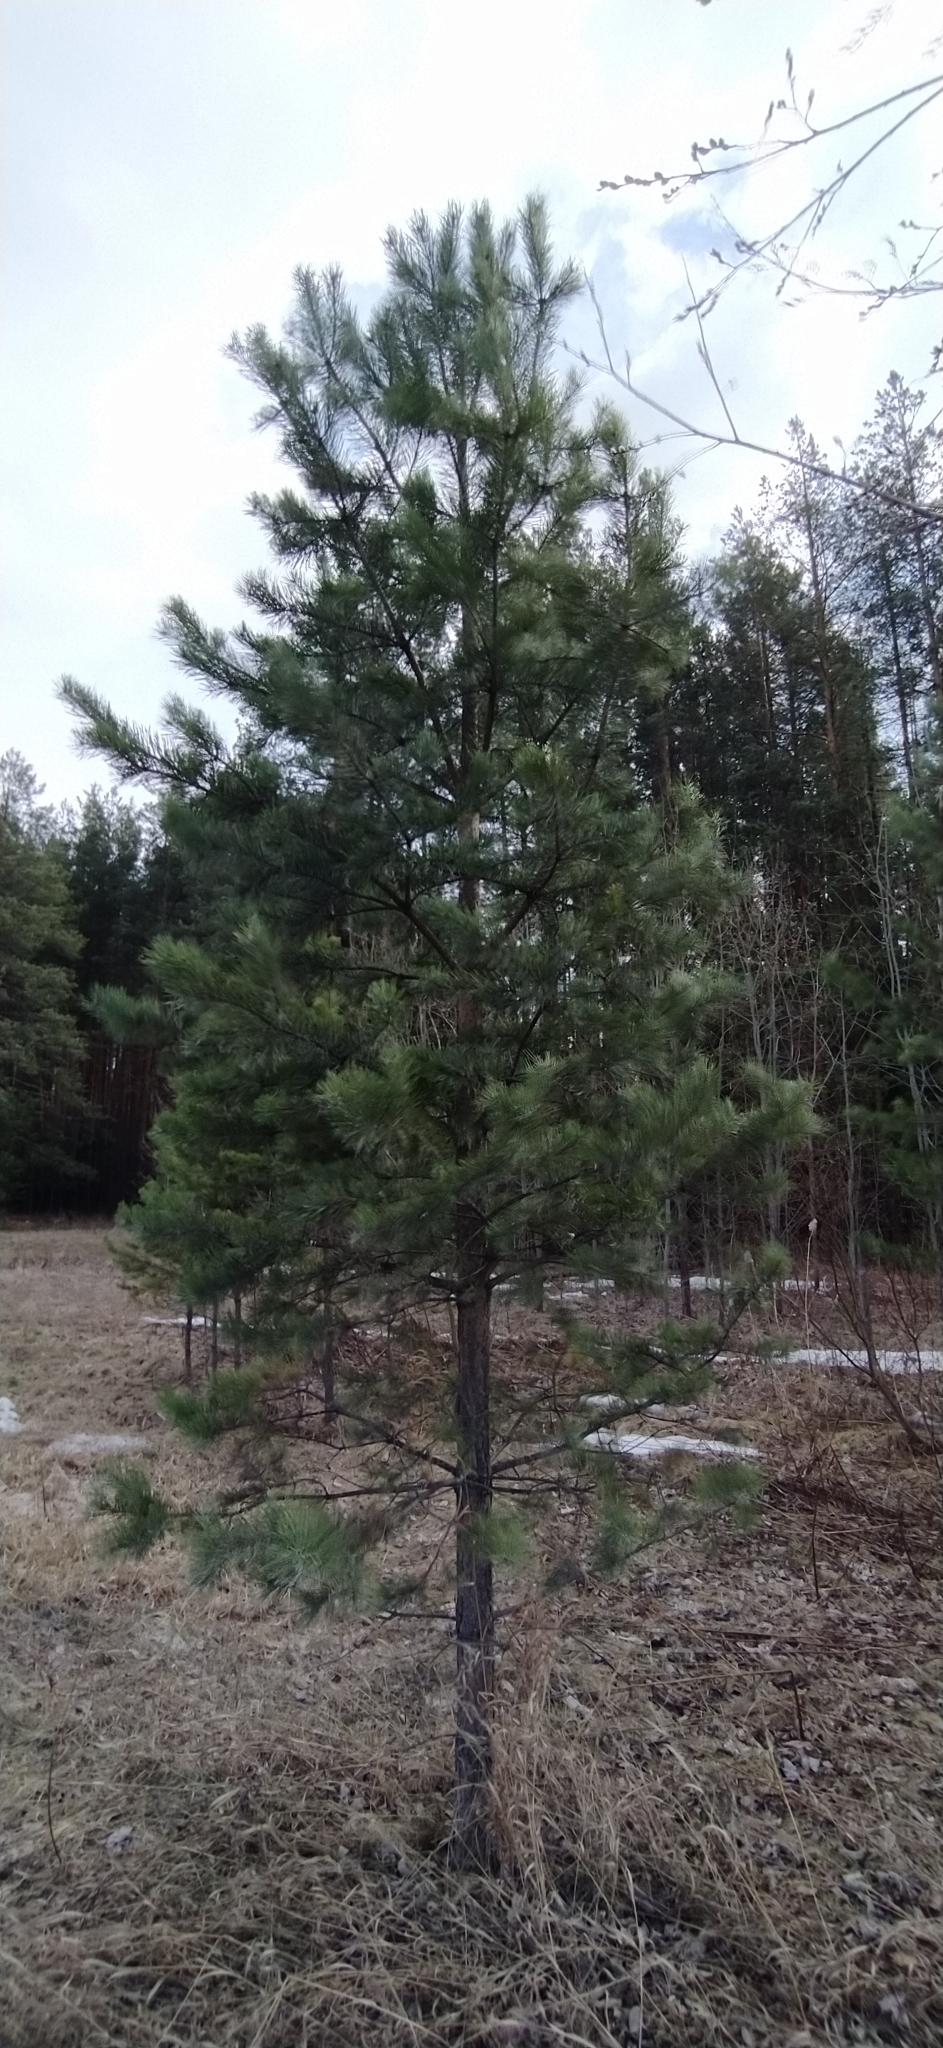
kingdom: Plantae
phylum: Tracheophyta
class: Pinopsida
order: Pinales
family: Pinaceae
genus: Pinus
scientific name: Pinus sylvestris
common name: Scots pine
